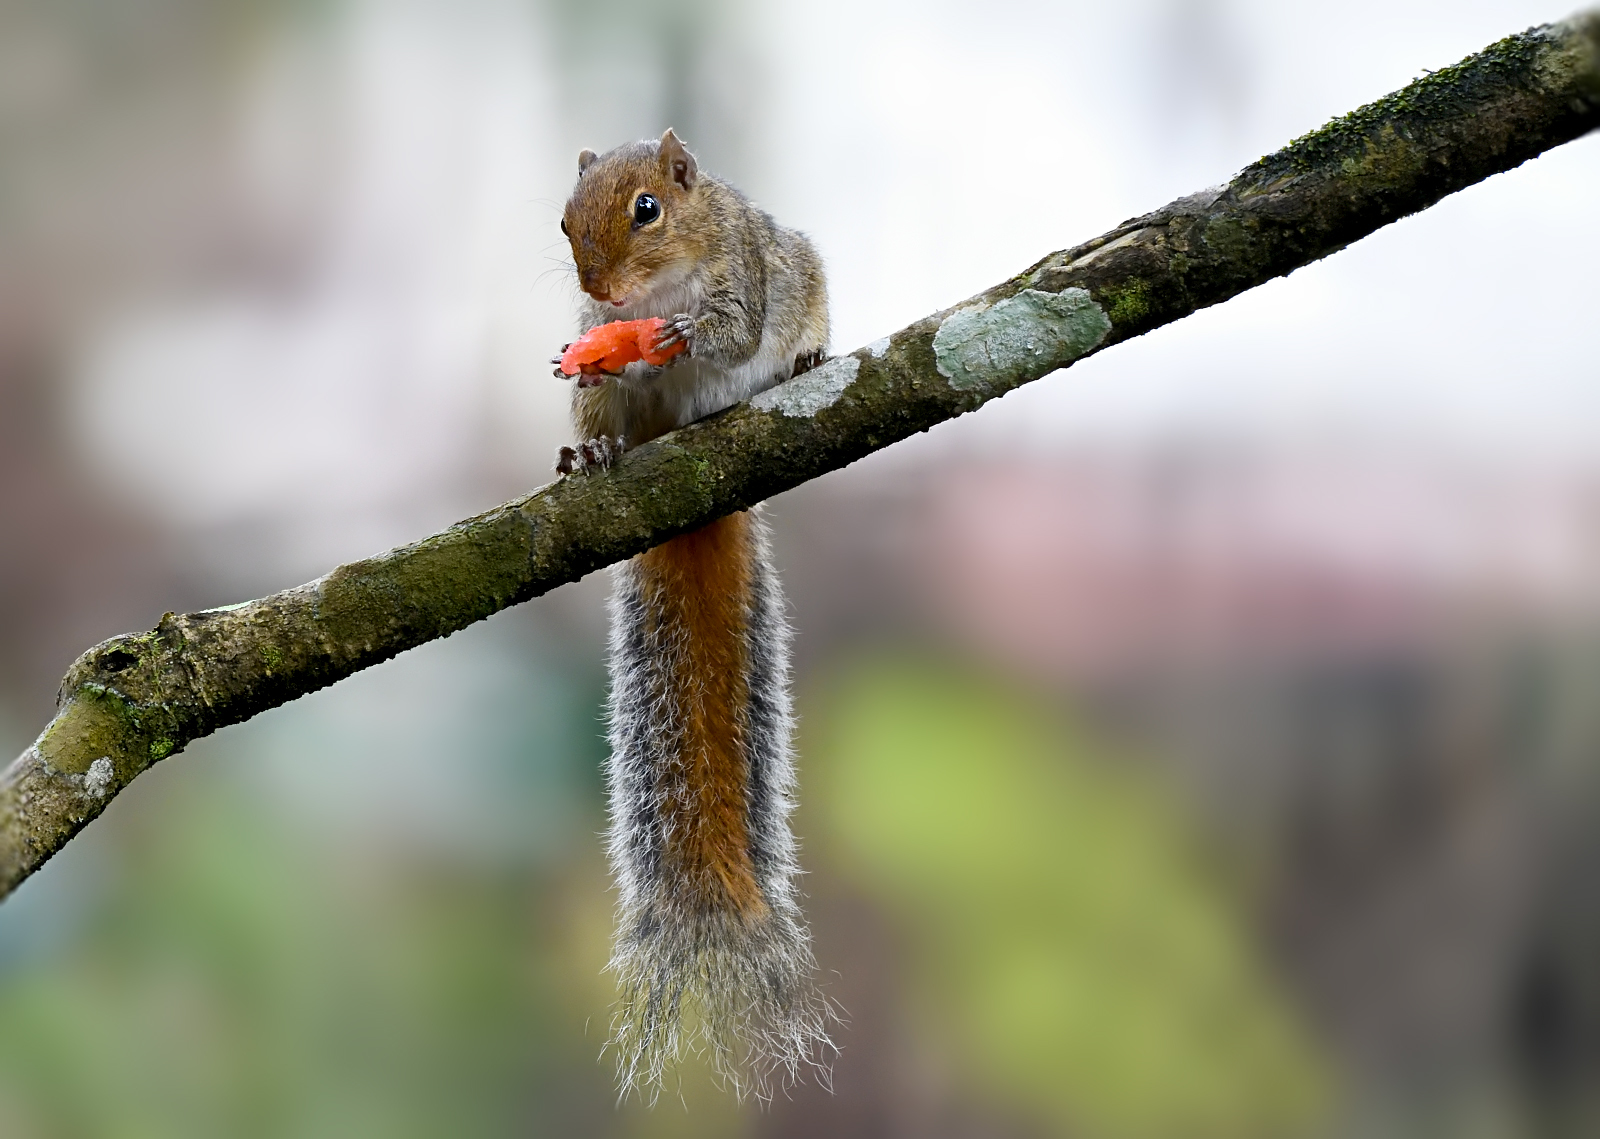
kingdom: Animalia
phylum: Chordata
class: Mammalia
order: Rodentia
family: Sciuridae
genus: Funambulus
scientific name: Funambulus tristriatus
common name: Jungle palm squirrel
